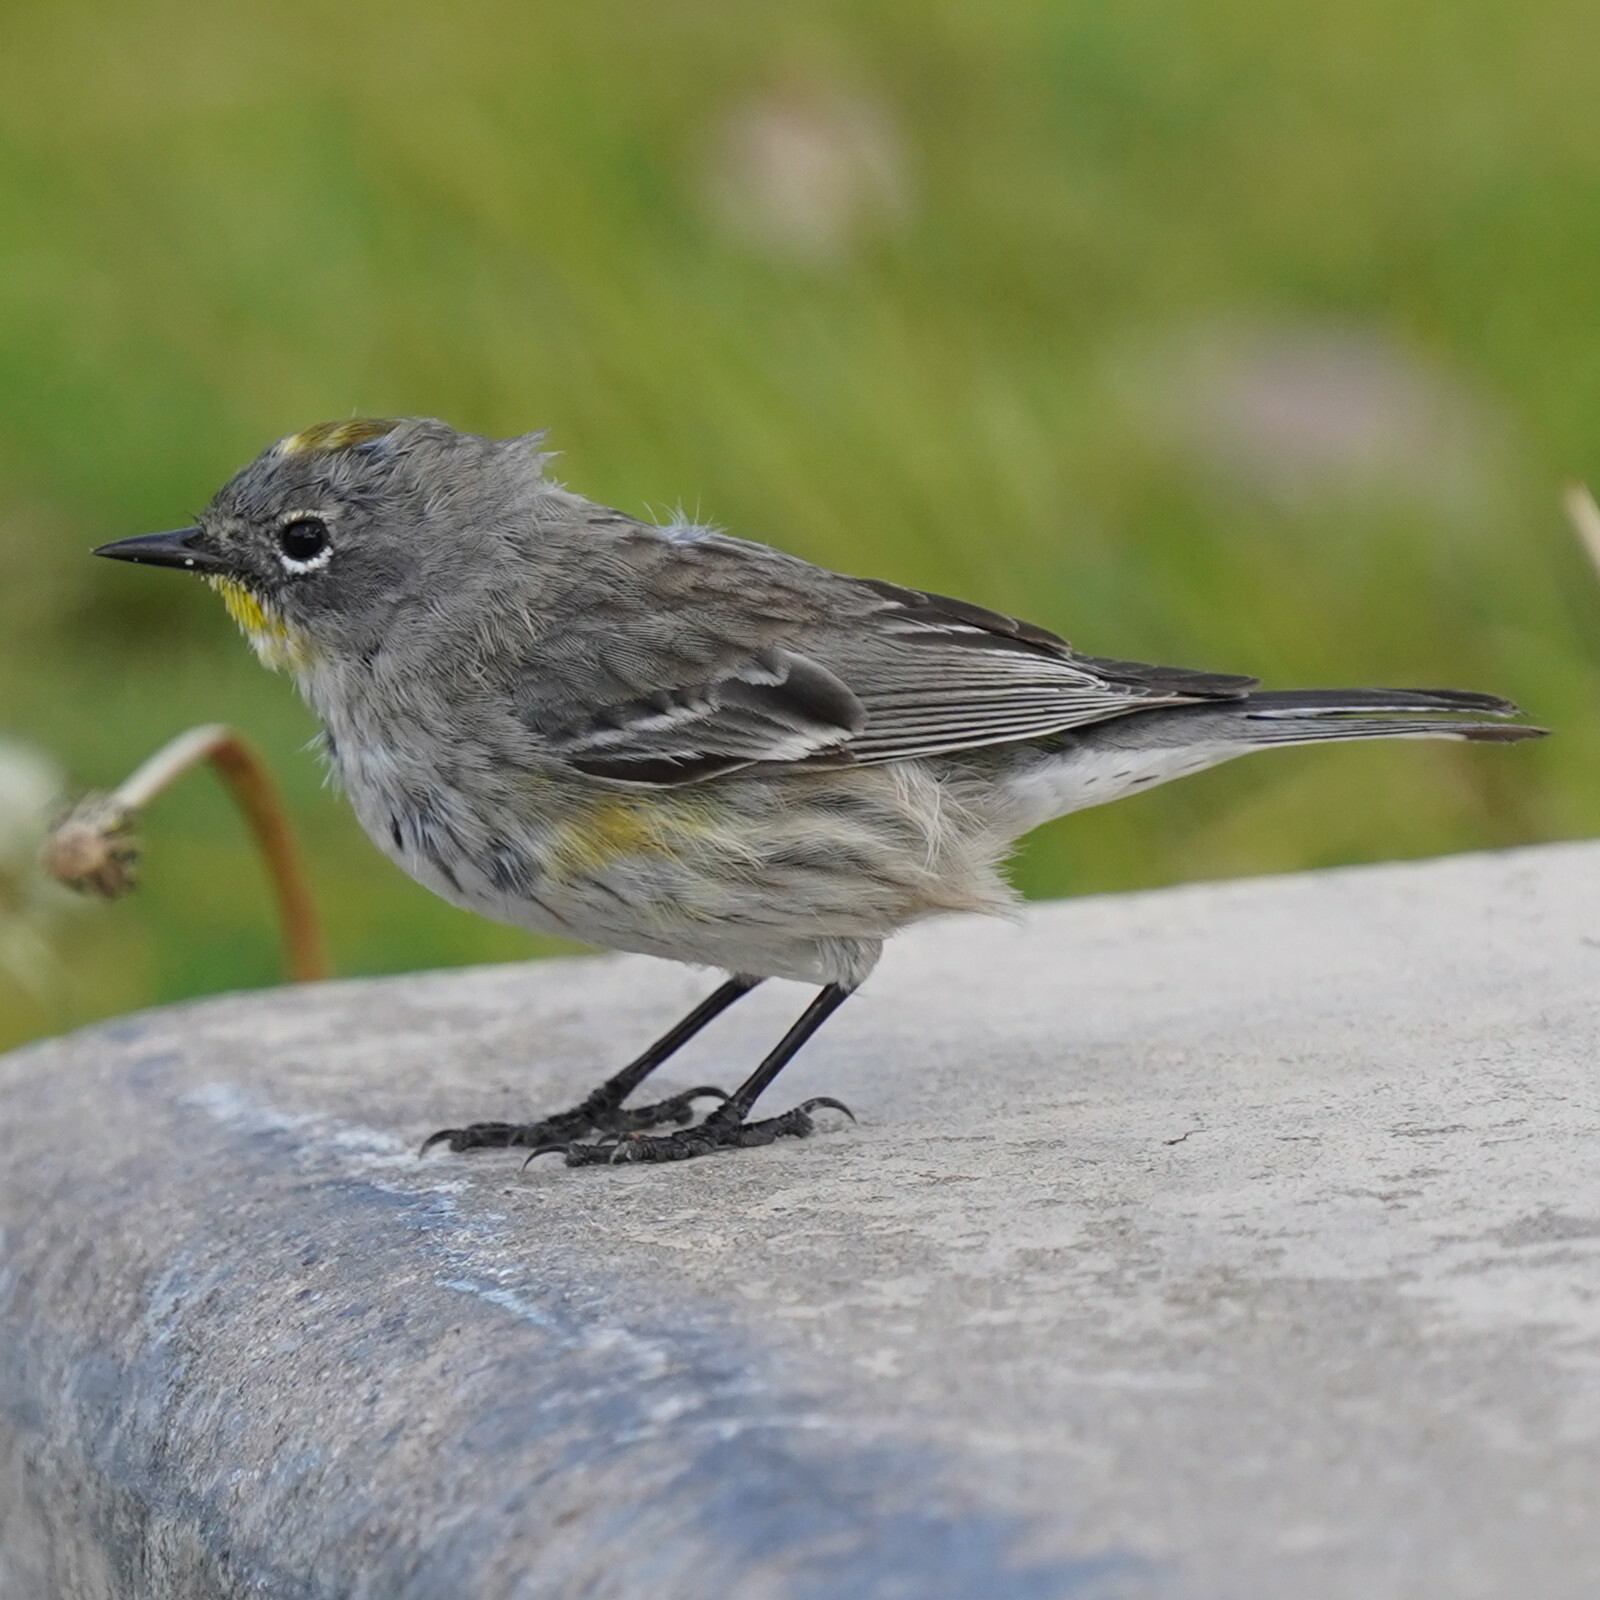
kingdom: Animalia
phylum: Chordata
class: Aves
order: Passeriformes
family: Parulidae
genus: Setophaga
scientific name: Setophaga auduboni
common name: Audubon's warbler
